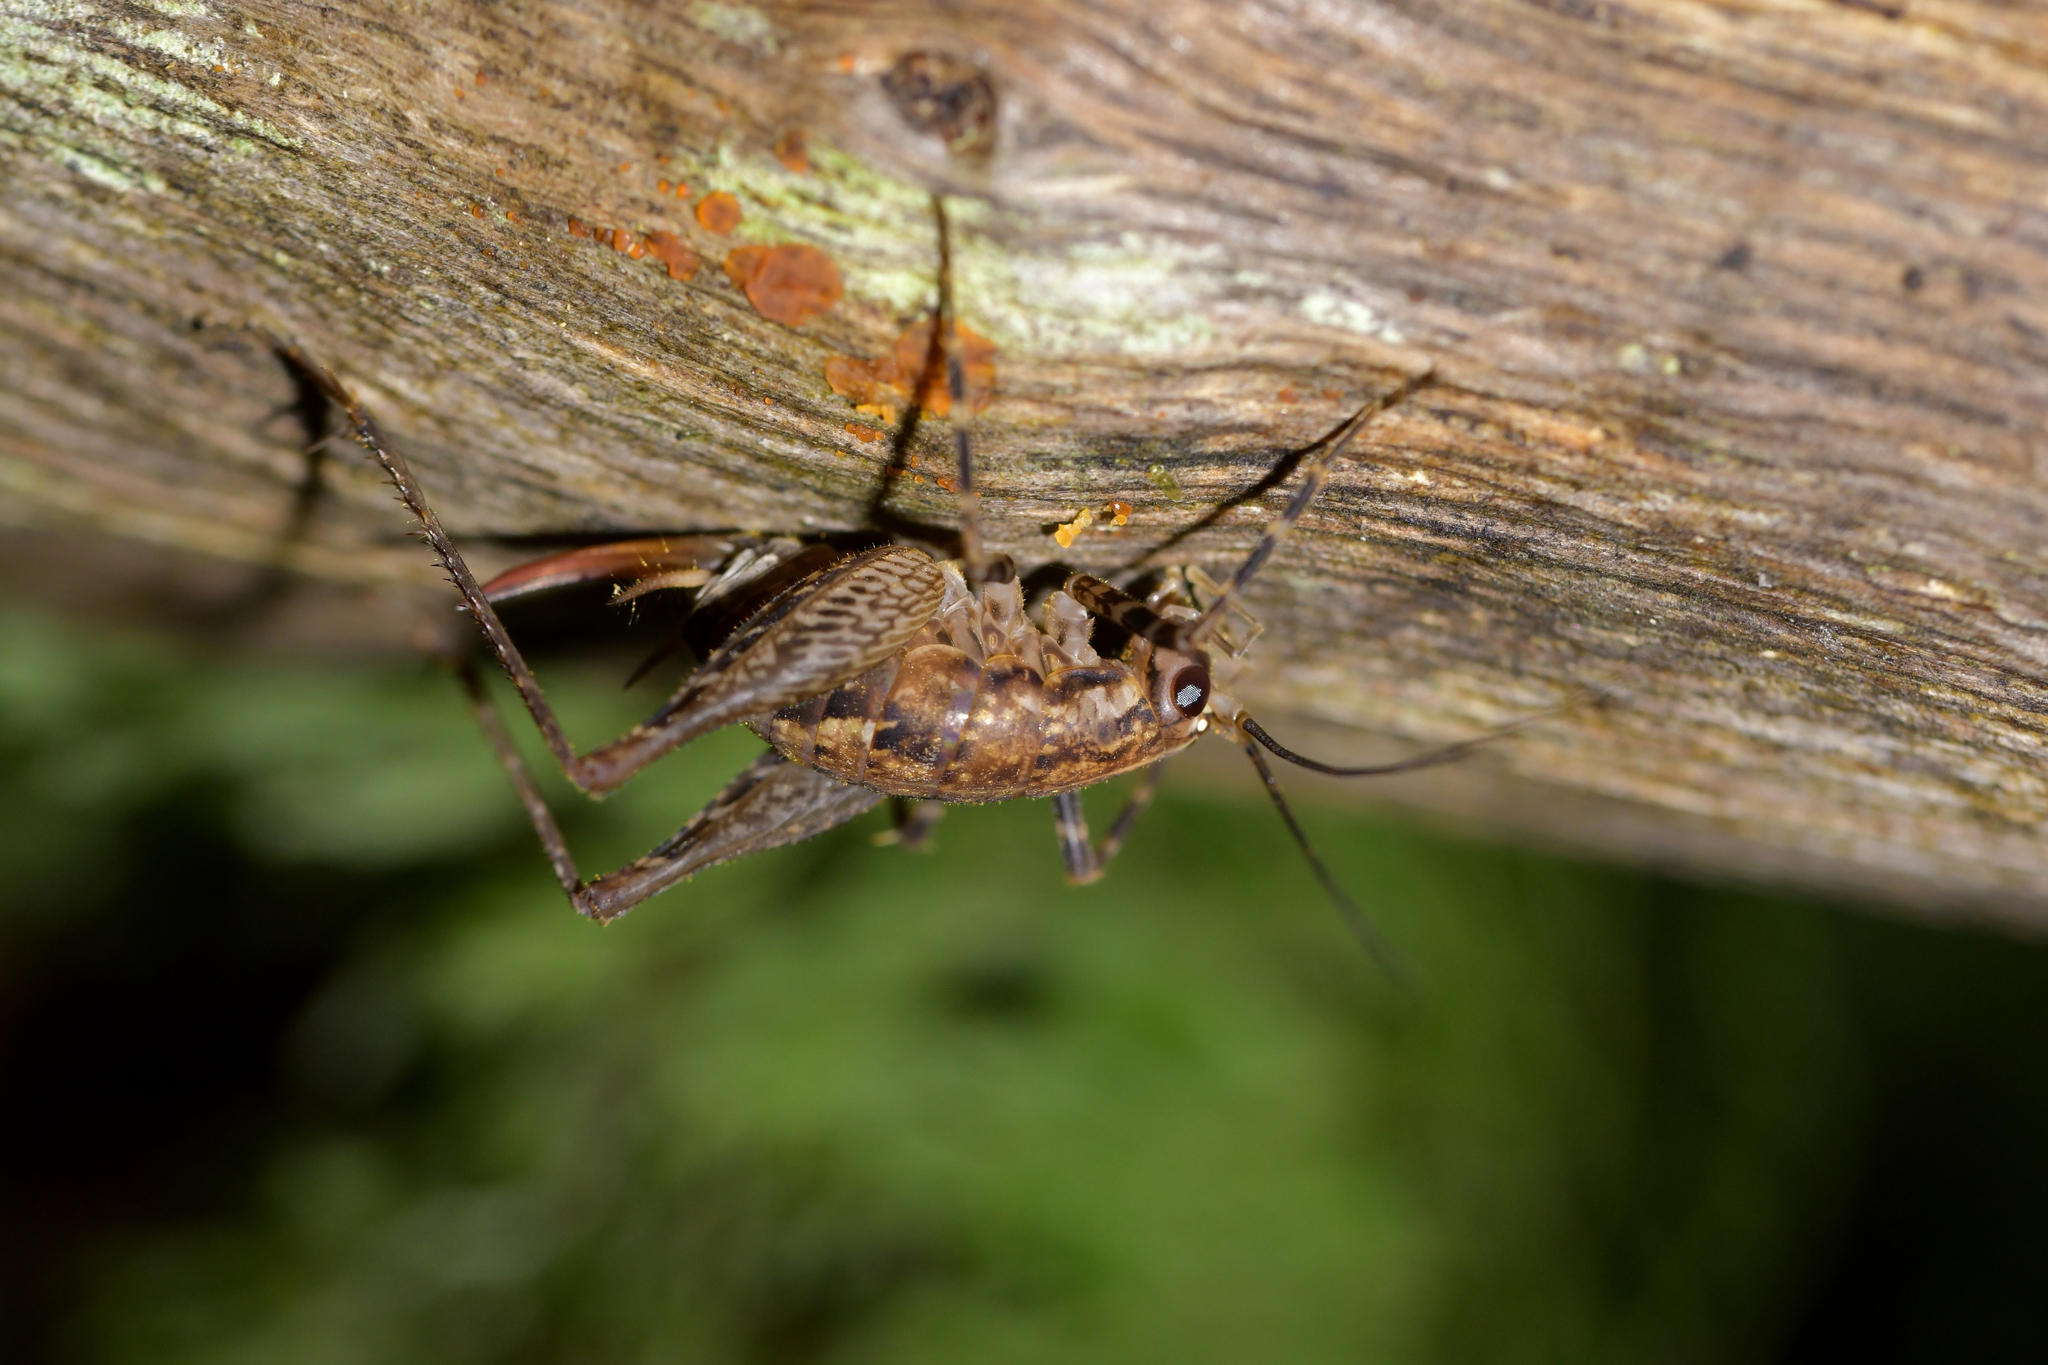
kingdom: Animalia
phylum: Arthropoda
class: Insecta
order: Orthoptera
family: Rhaphidophoridae
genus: Pleioplectron
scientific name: Pleioplectron hudsoni
